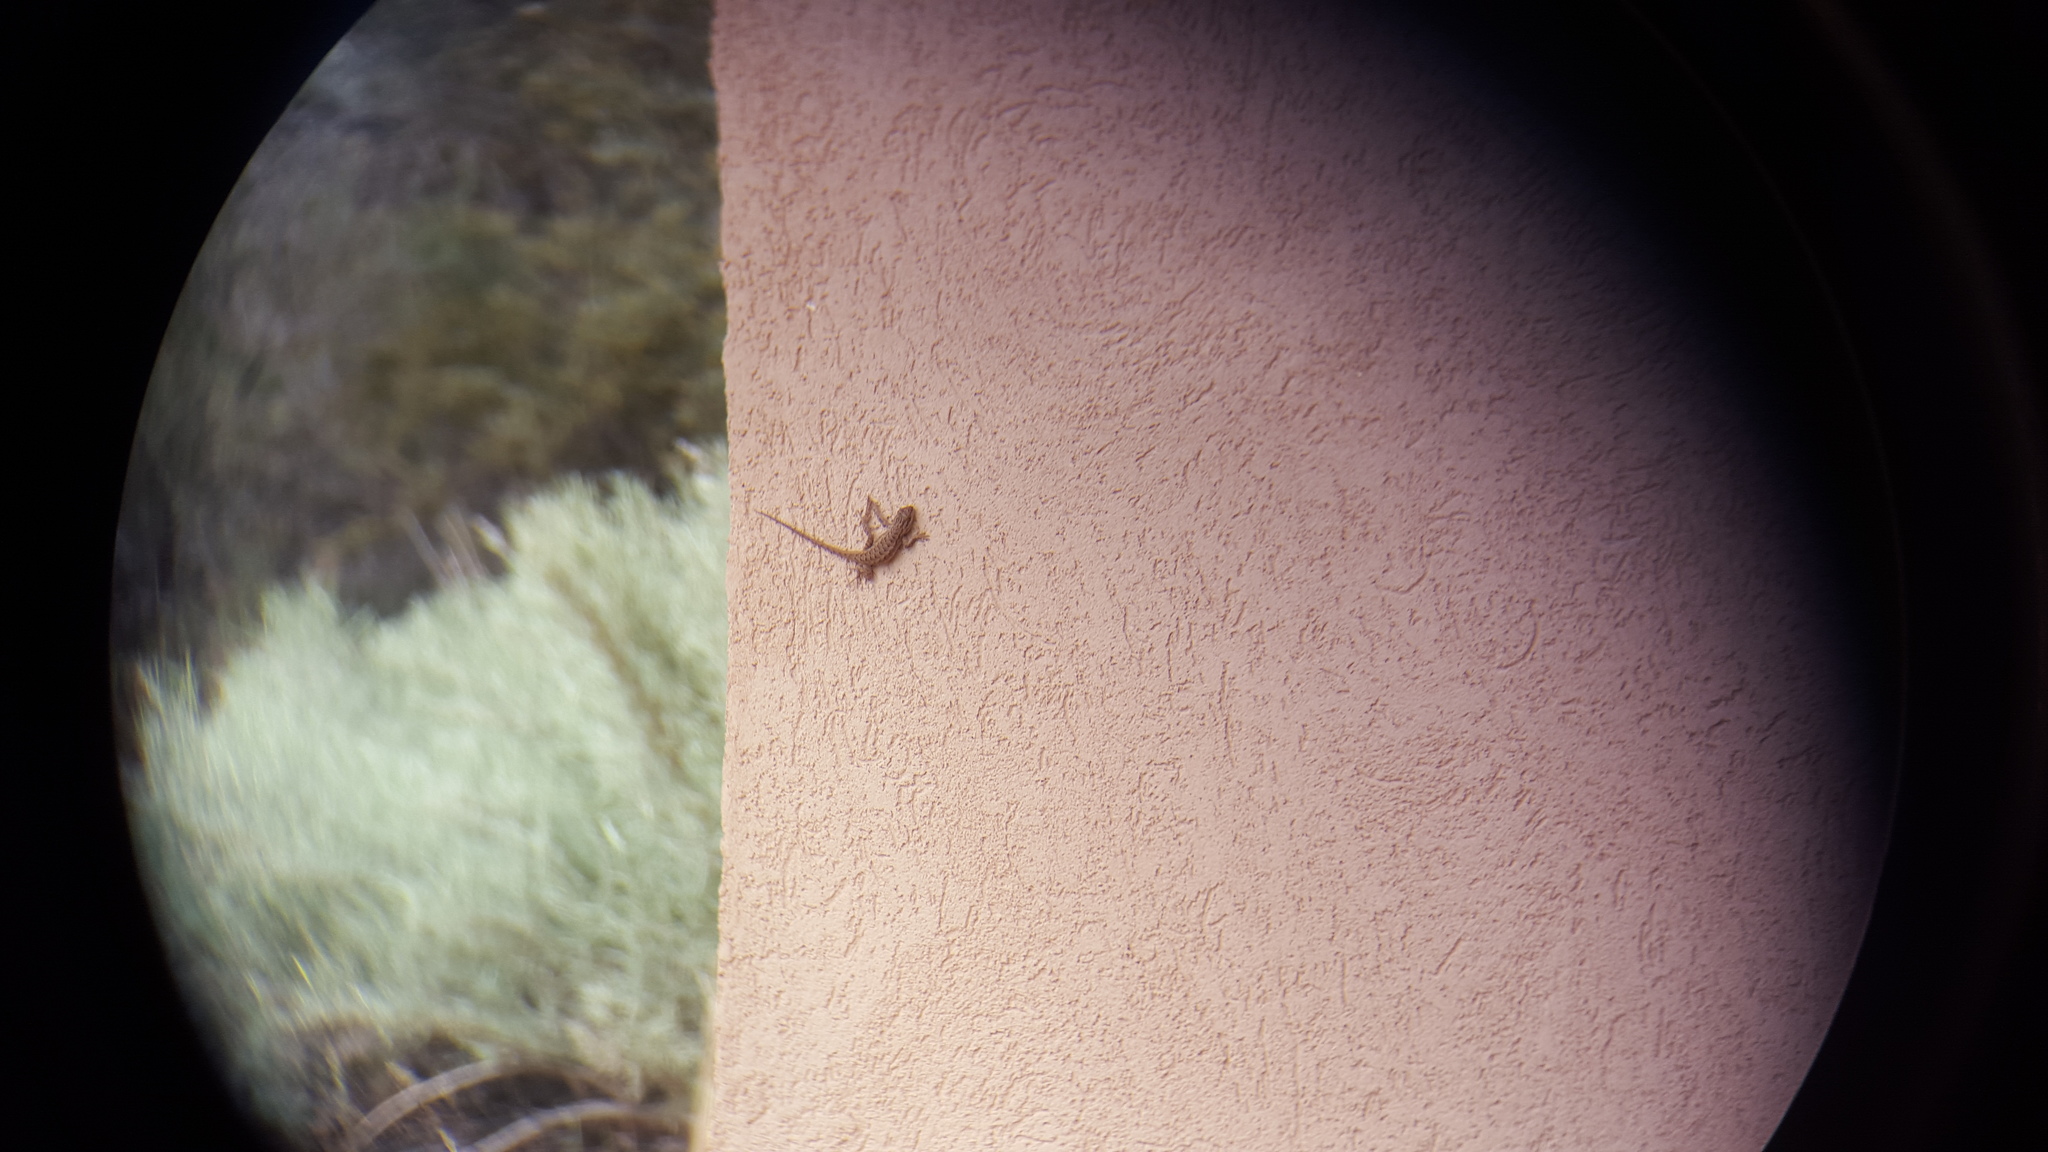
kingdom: Animalia
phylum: Chordata
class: Squamata
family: Phrynosomatidae
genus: Sceloporus
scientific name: Sceloporus tristichus
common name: Plateau fence lizard
